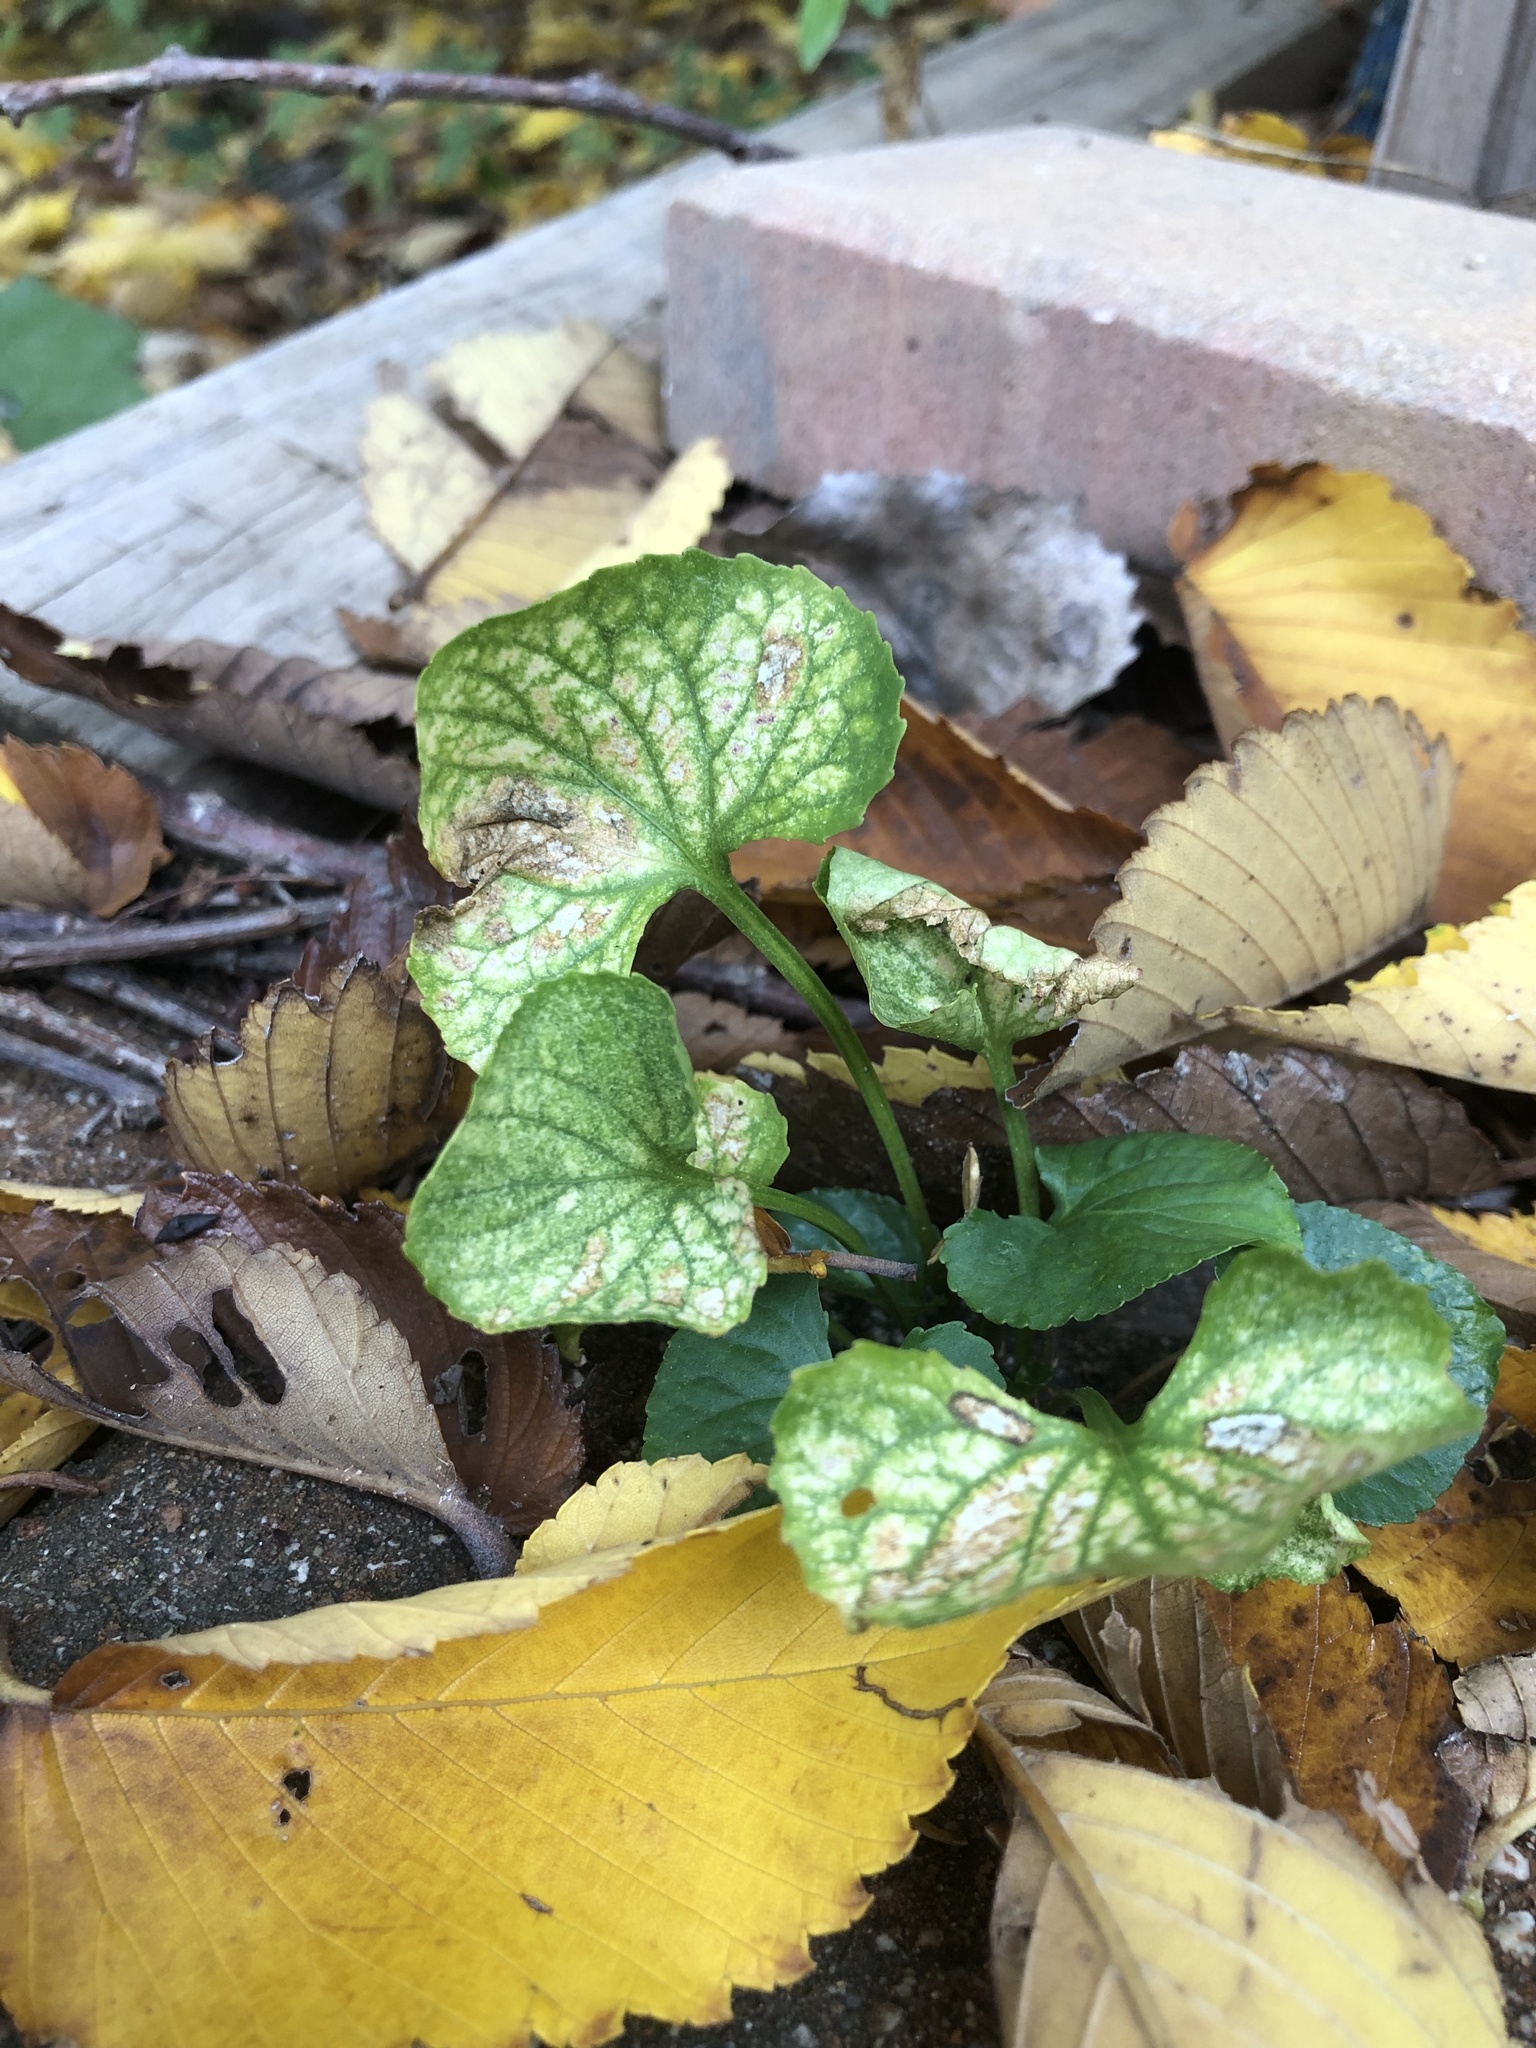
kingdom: Plantae
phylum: Tracheophyta
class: Magnoliopsida
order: Malpighiales
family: Violaceae
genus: Viola
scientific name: Viola sororia
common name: Dooryard violet
